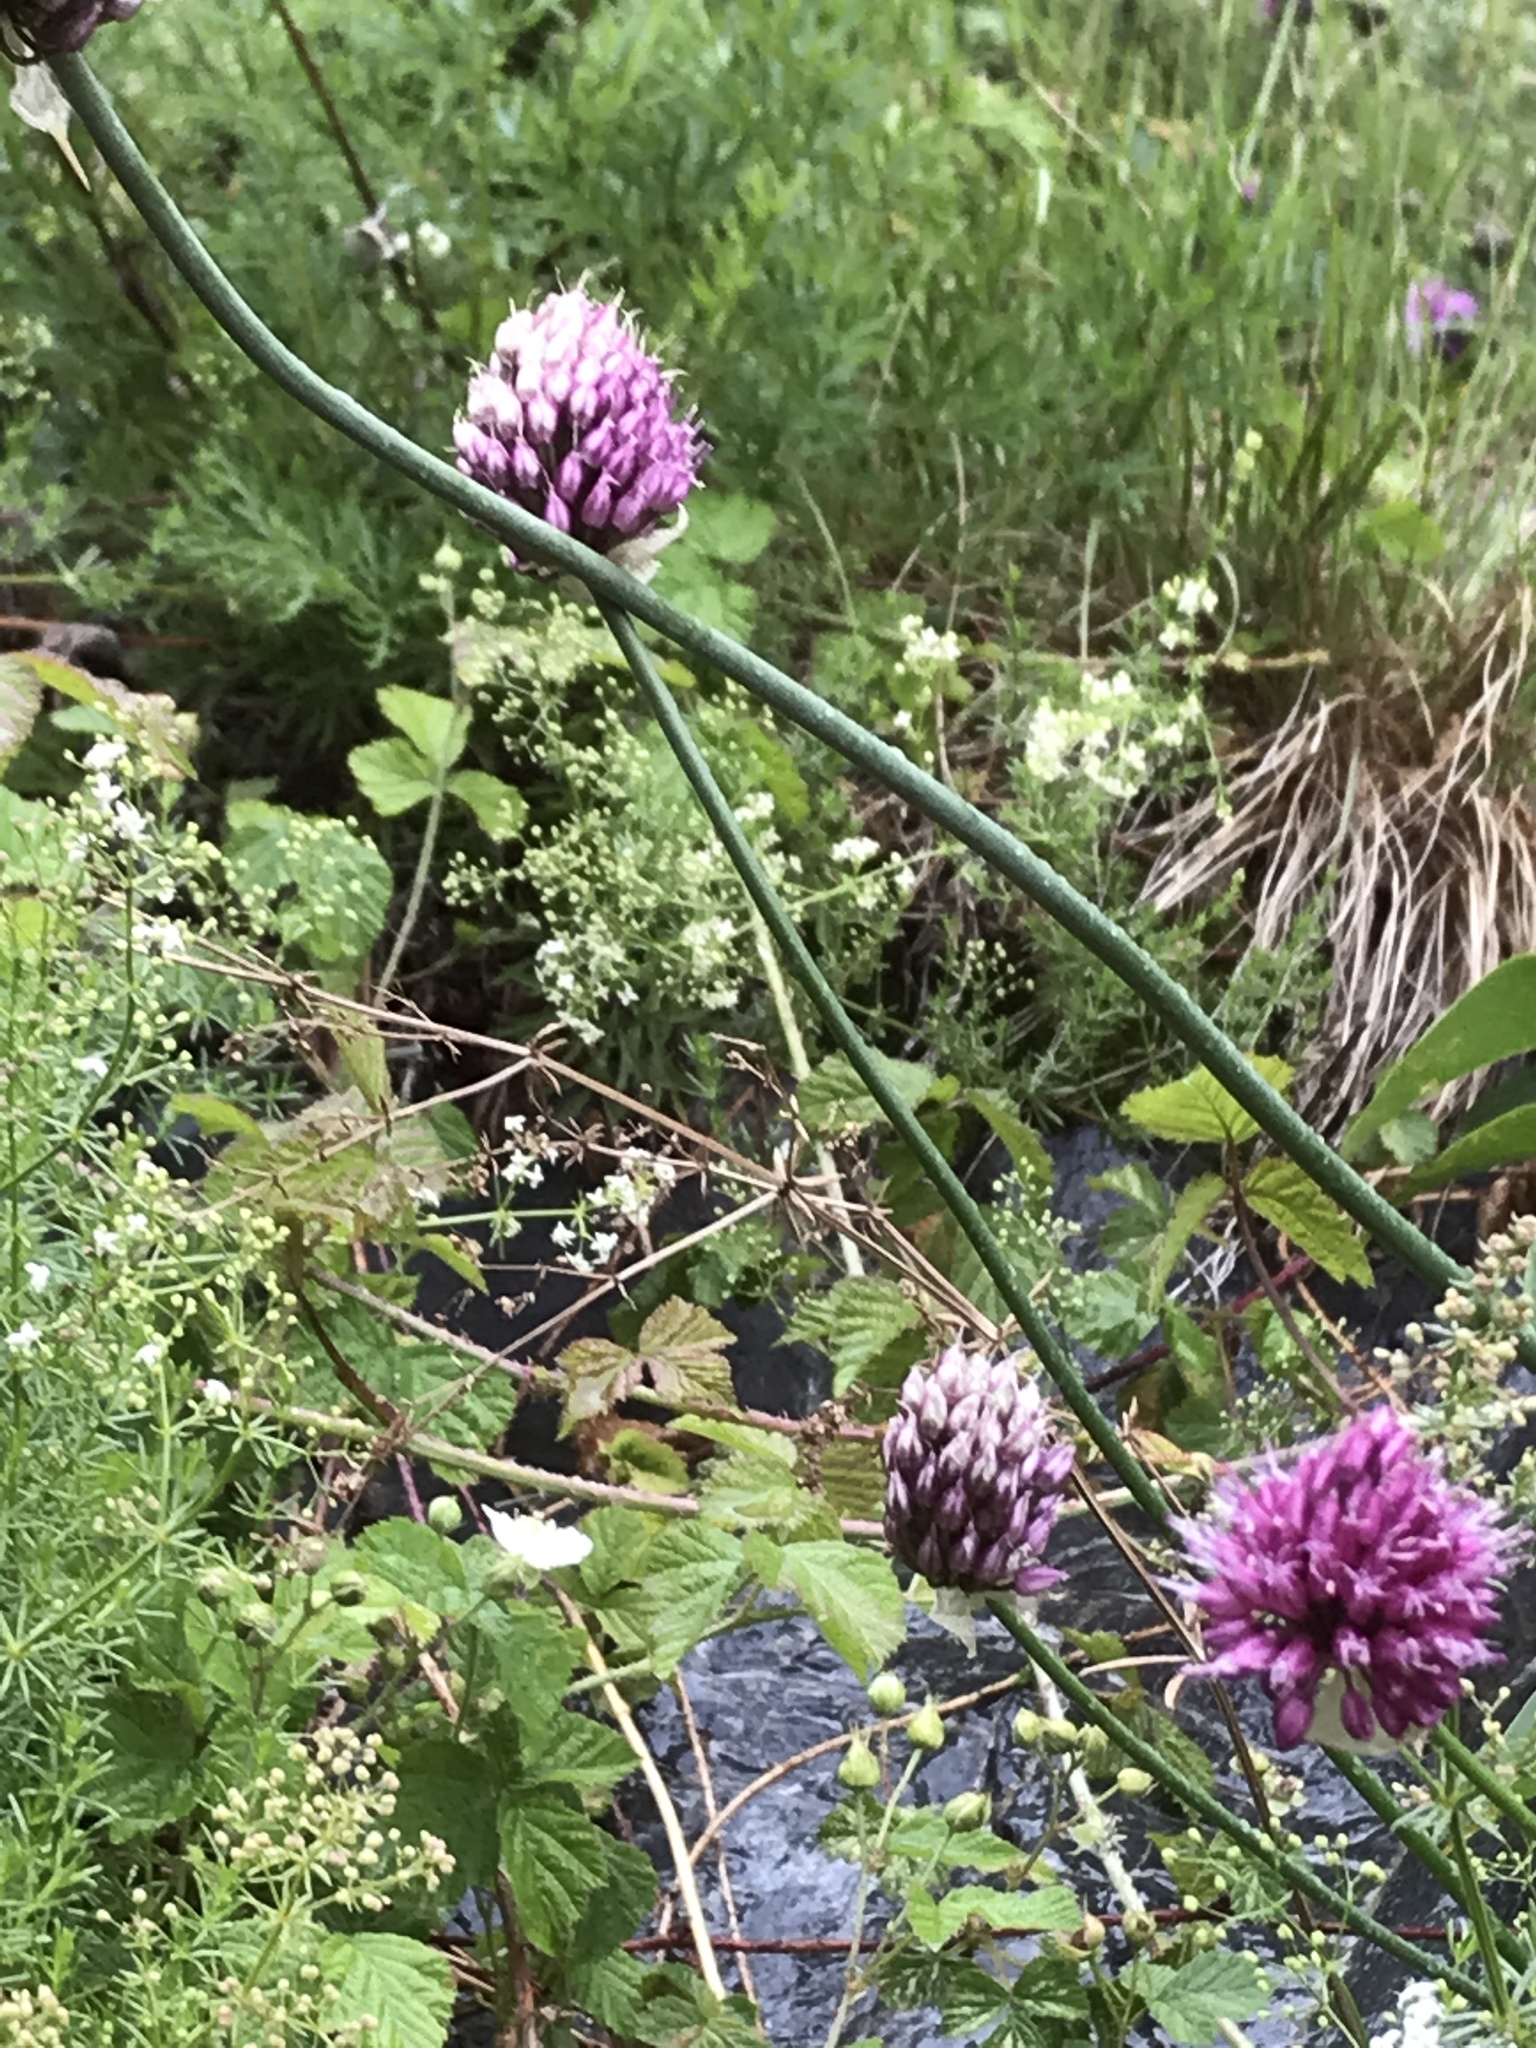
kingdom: Plantae
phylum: Tracheophyta
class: Liliopsida
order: Asparagales
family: Amaryllidaceae
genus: Allium
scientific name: Allium sphaerocephalon
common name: Round-headed leek
